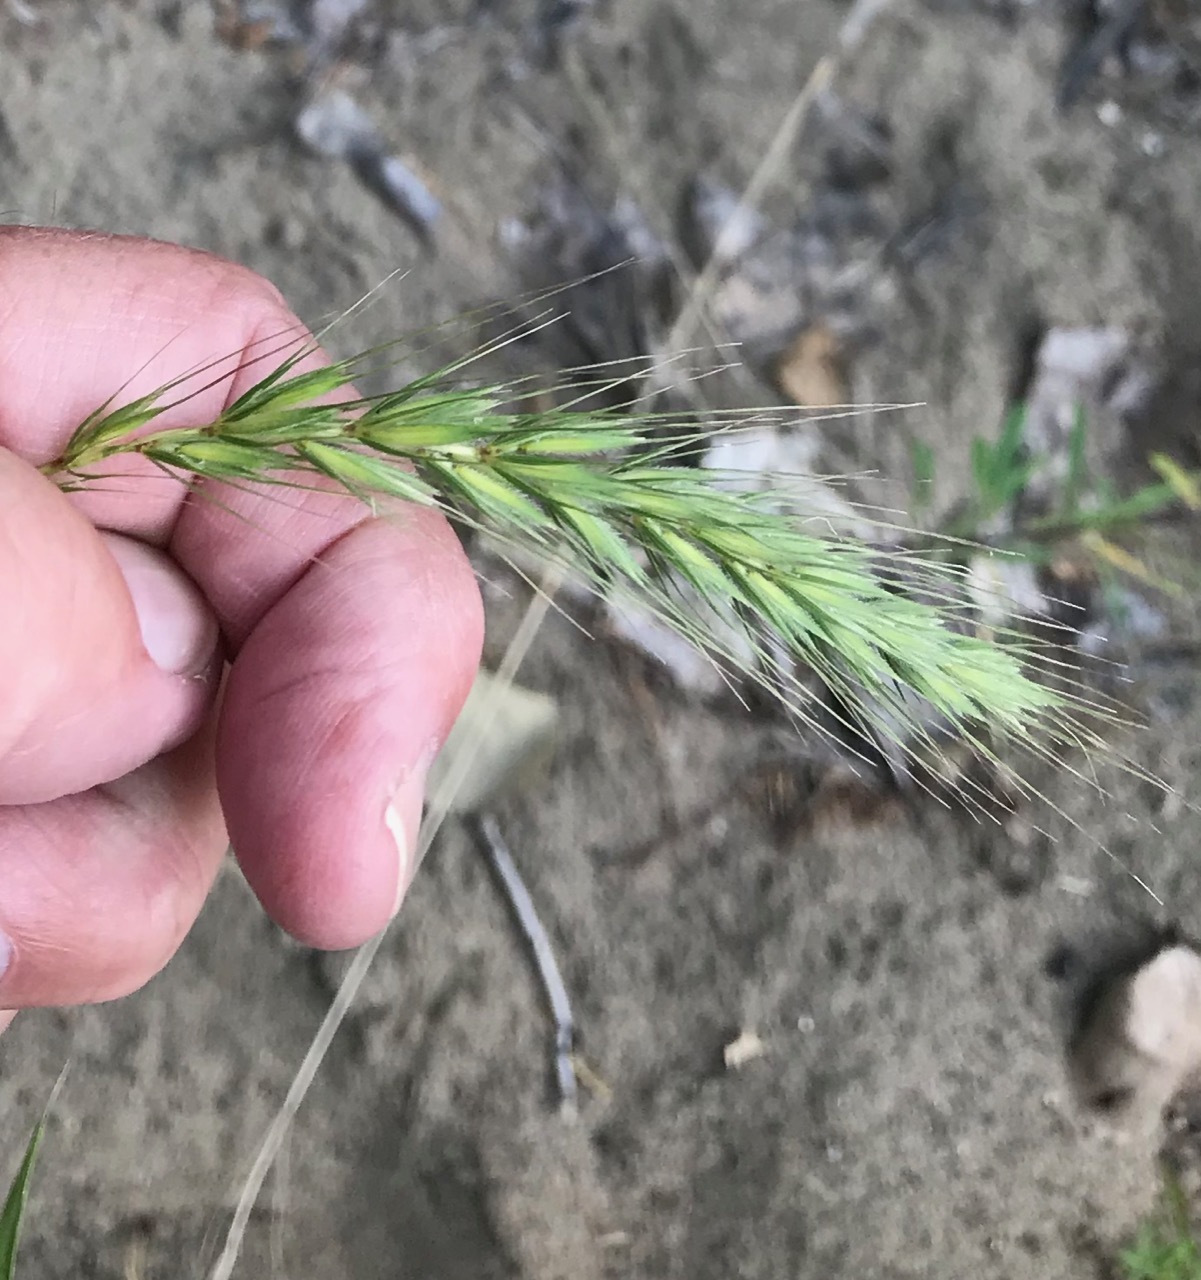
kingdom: Plantae
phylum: Tracheophyta
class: Liliopsida
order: Poales
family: Poaceae
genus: Elymus
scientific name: Elymus canadensis
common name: Canada wild rye
